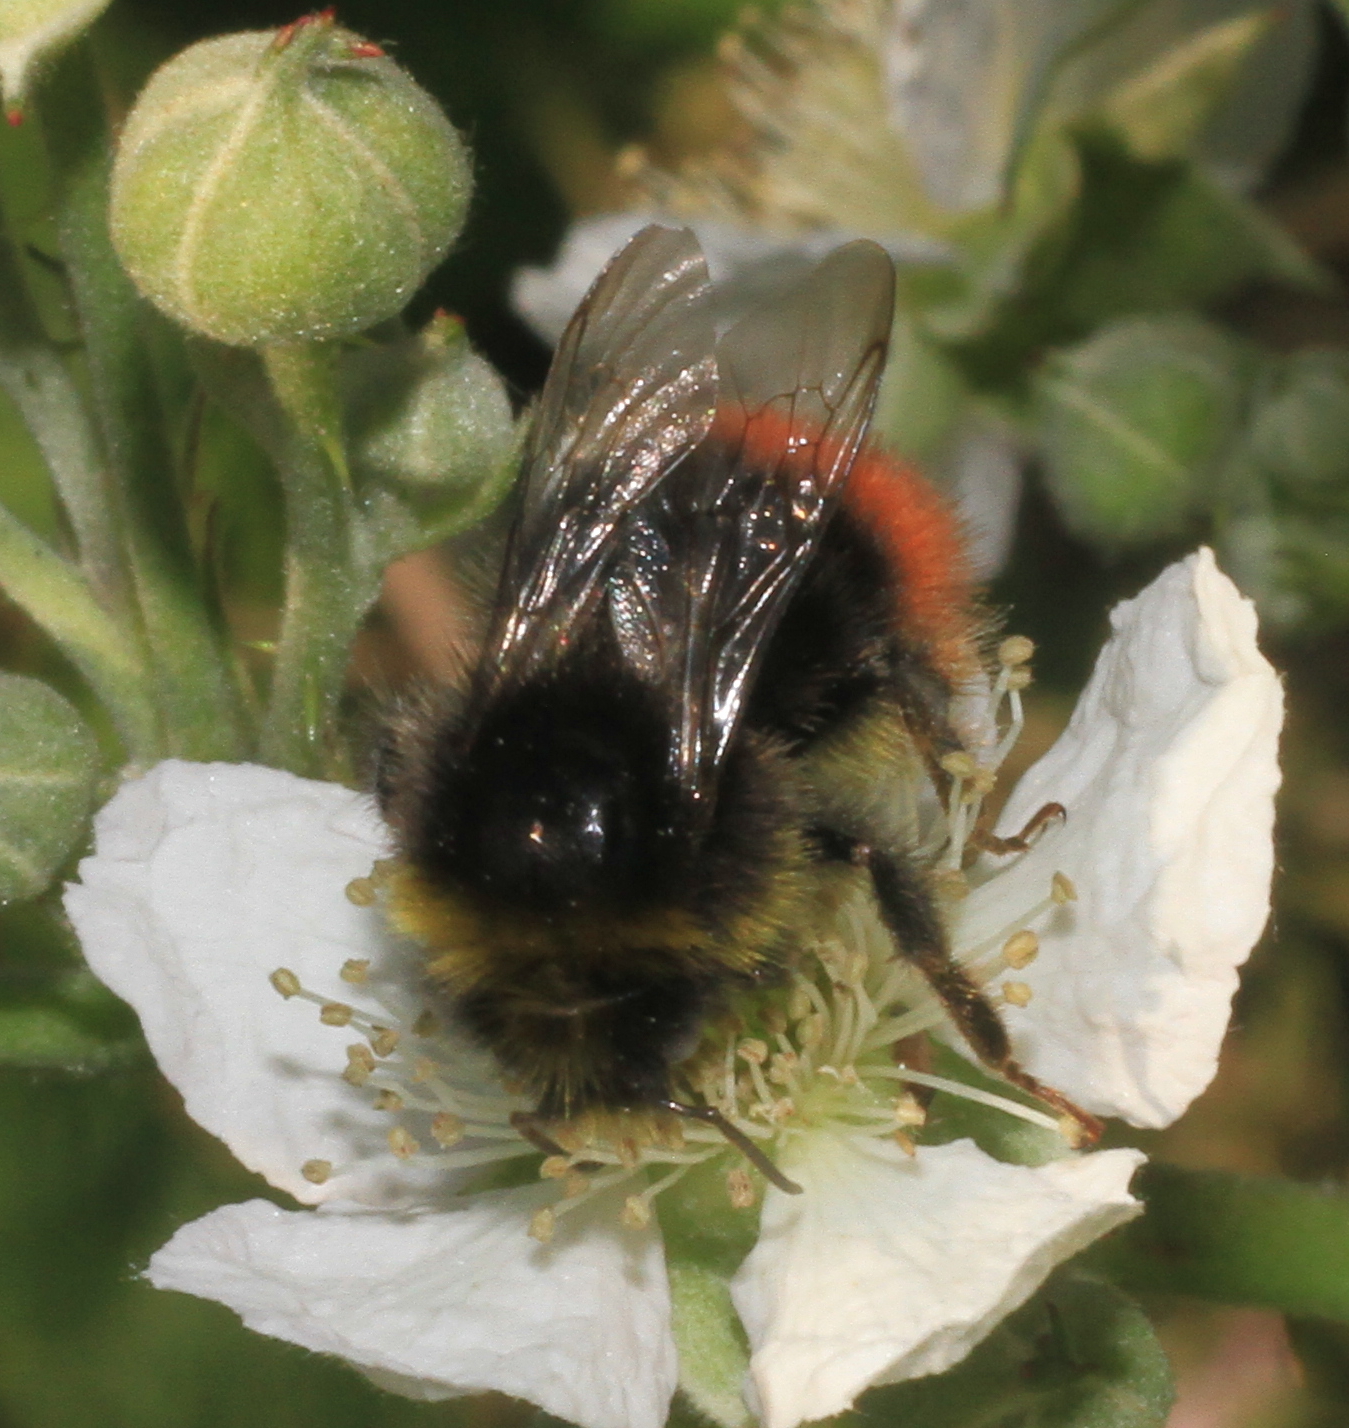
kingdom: Animalia
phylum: Arthropoda
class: Insecta
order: Hymenoptera
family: Apidae
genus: Bombus
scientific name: Bombus lapidarius
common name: Large red-tailed humble-bee
